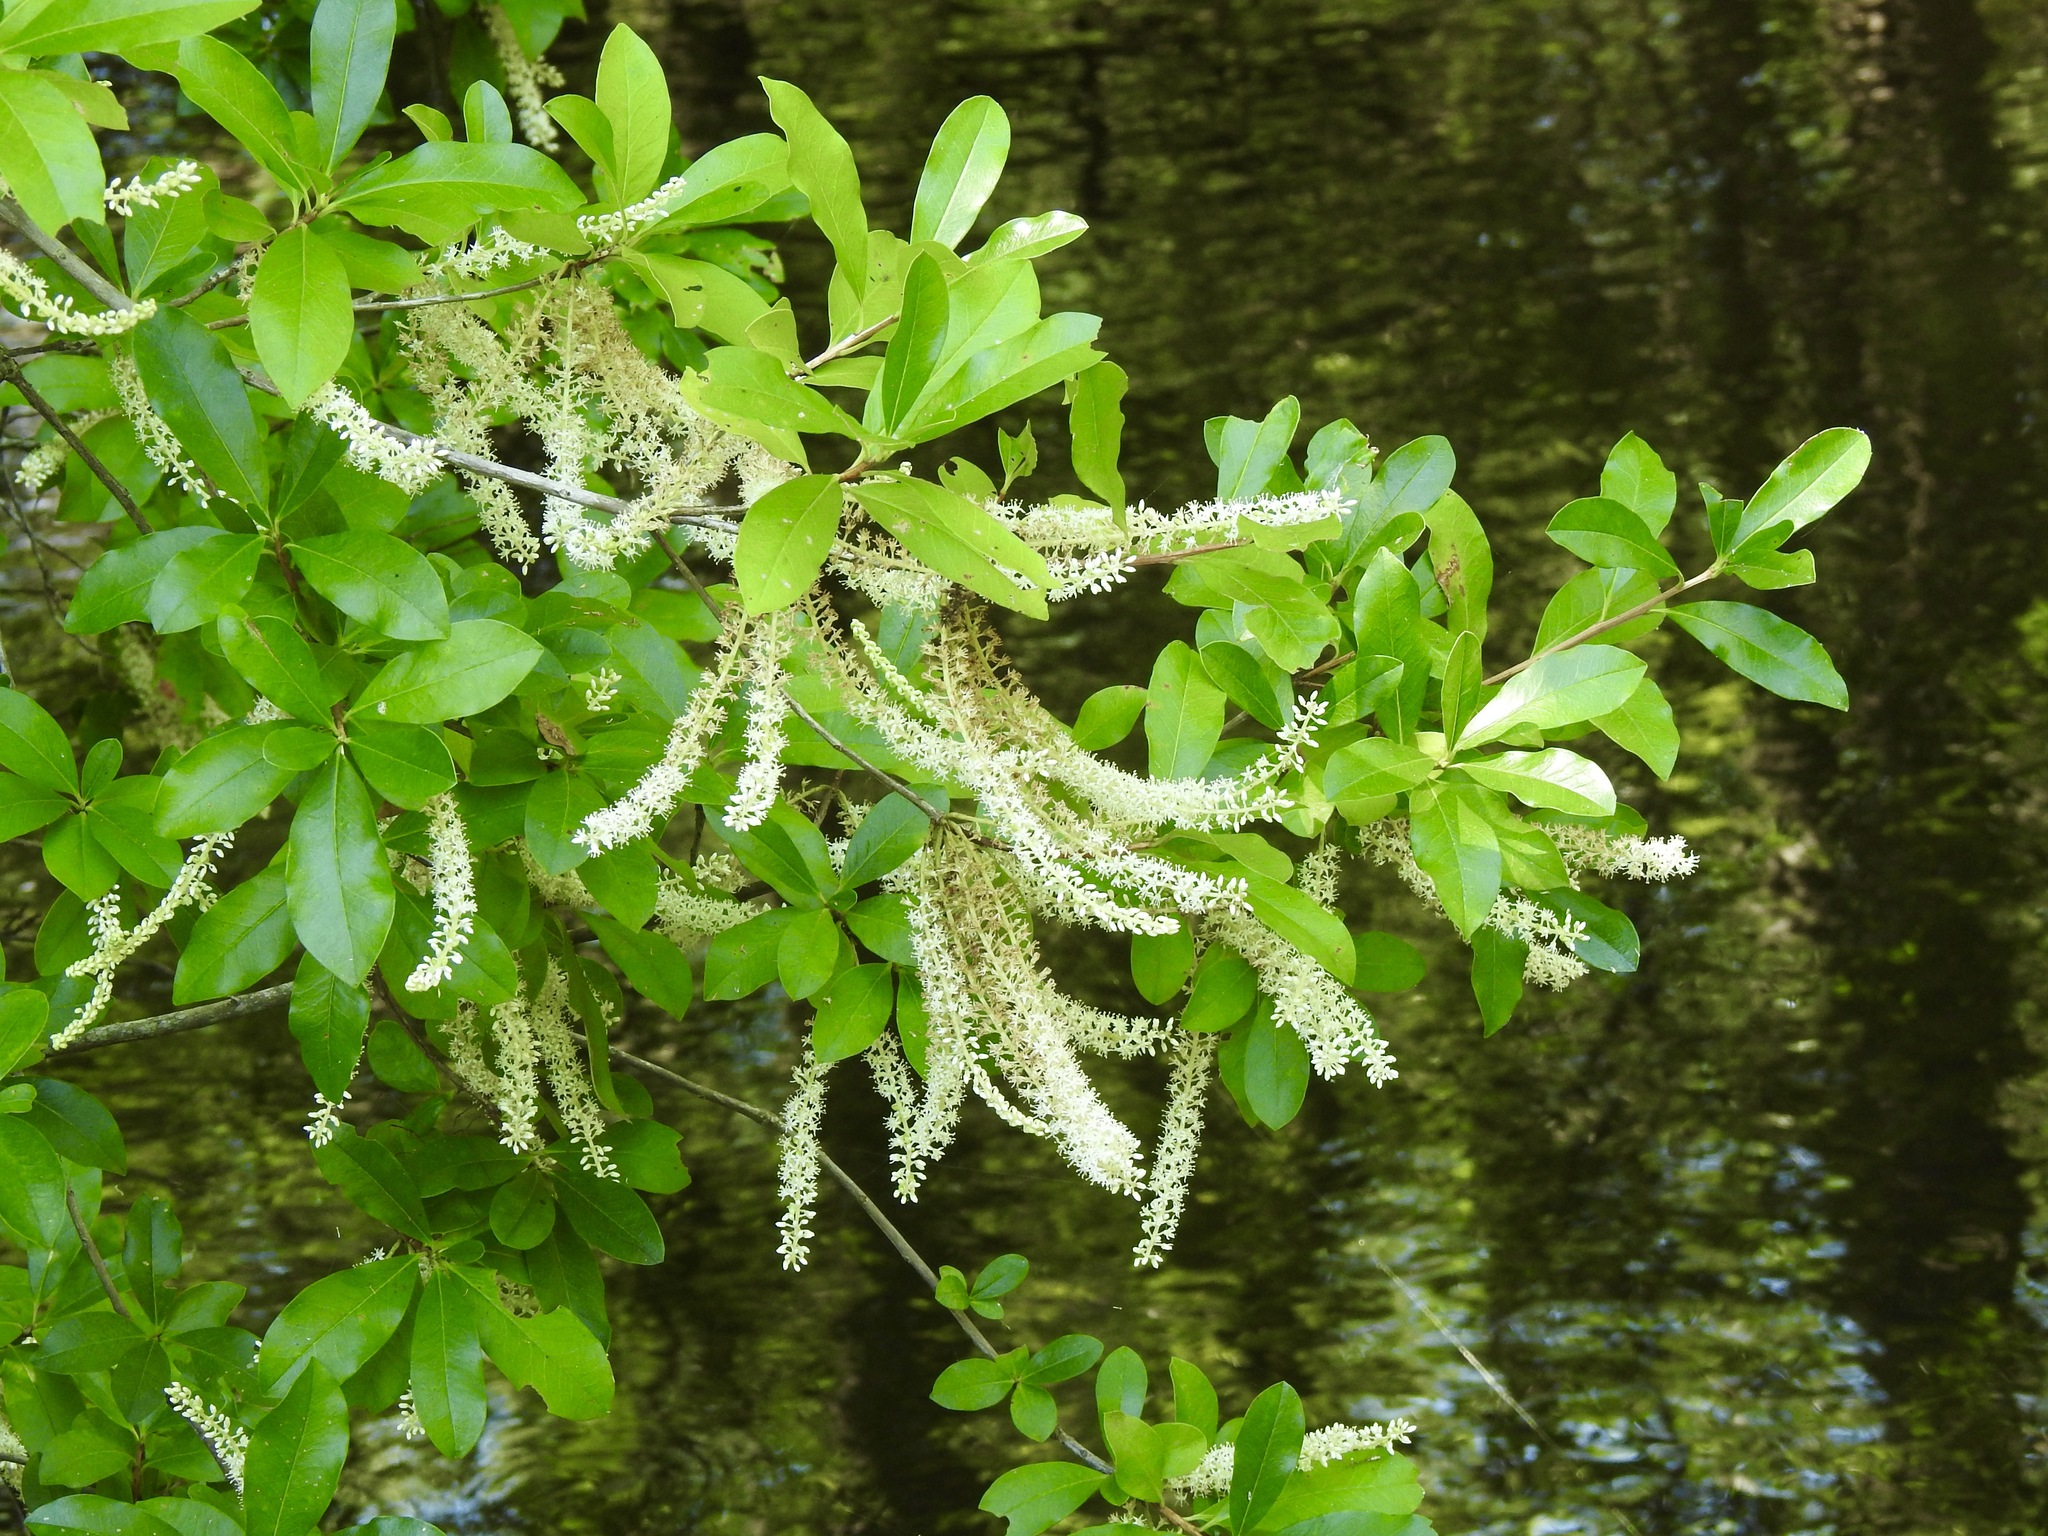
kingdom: Plantae
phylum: Tracheophyta
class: Magnoliopsida
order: Ericales
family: Cyrillaceae
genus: Cyrilla
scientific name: Cyrilla racemiflora
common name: Black titi
